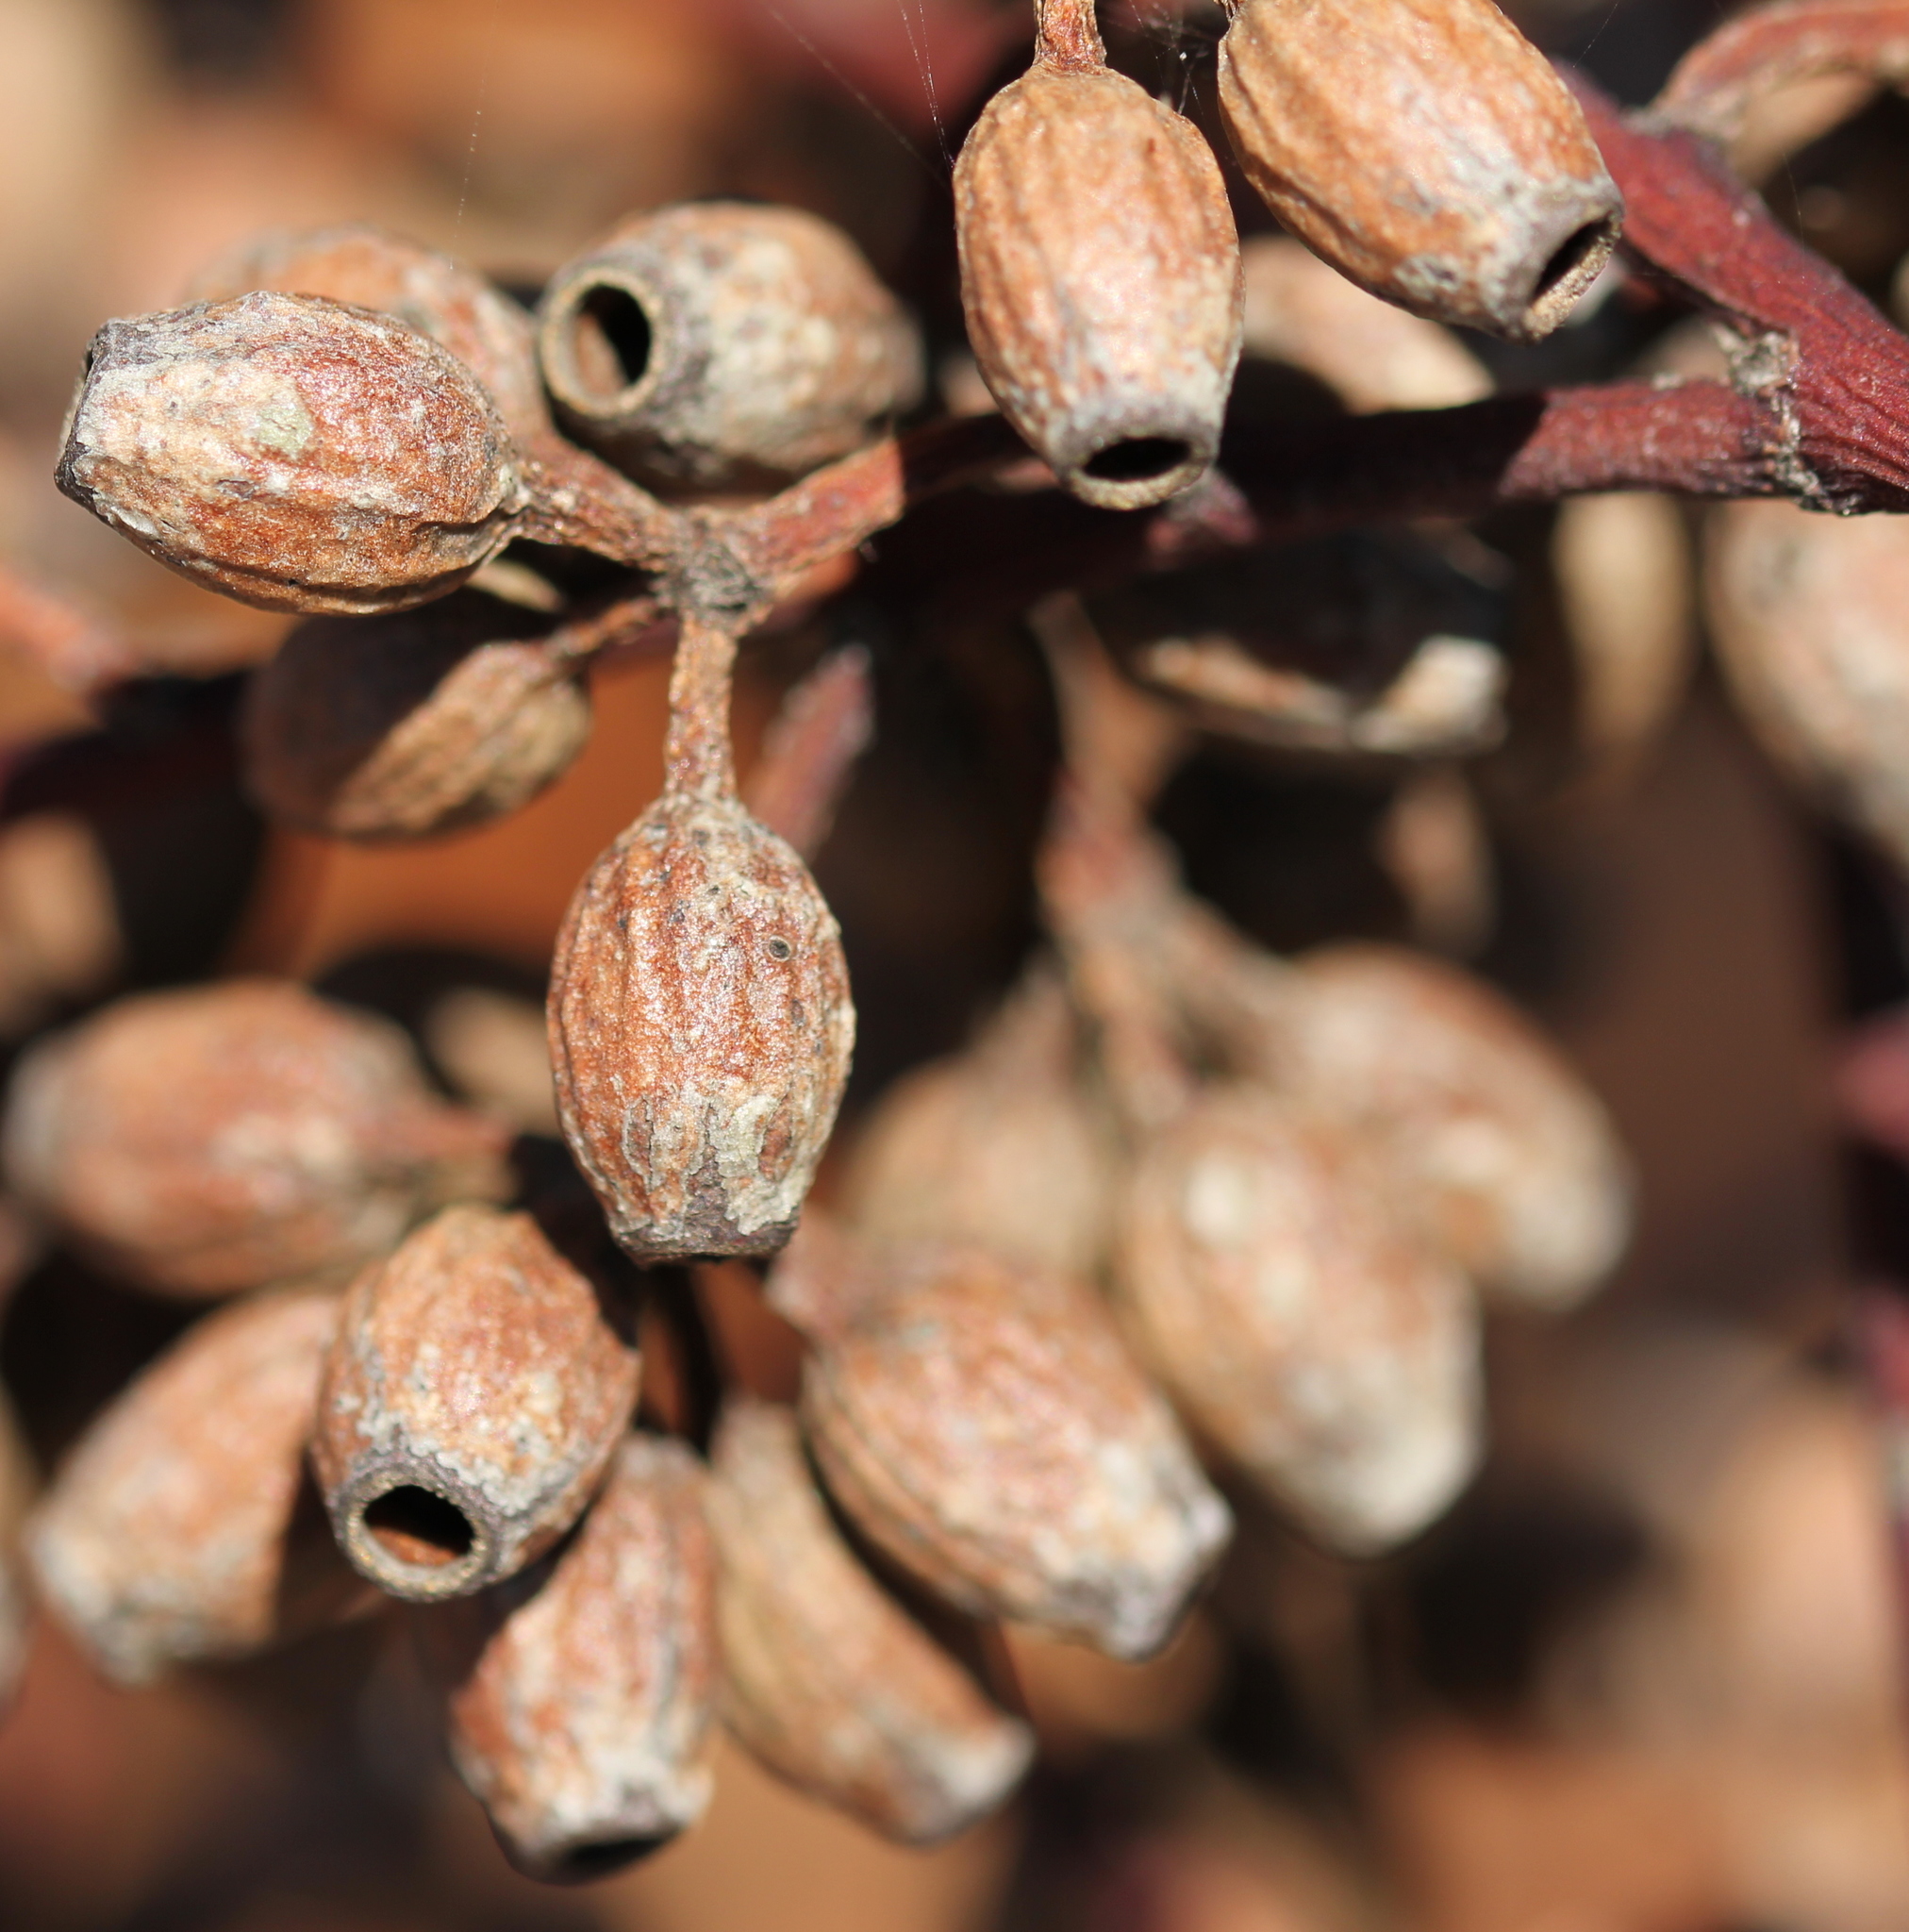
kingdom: Plantae
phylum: Tracheophyta
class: Magnoliopsida
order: Myrtales
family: Myrtaceae
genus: Eucalyptus
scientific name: Eucalyptus cladocalyx
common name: Sugargum
